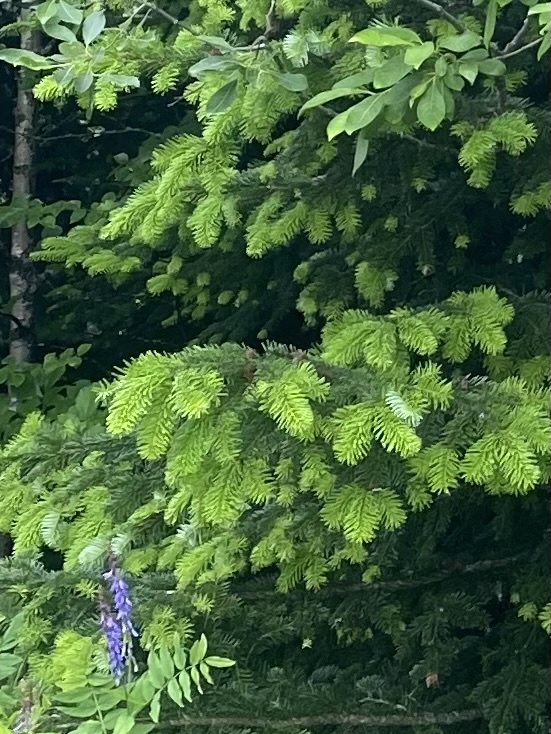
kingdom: Plantae
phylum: Tracheophyta
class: Pinopsida
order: Pinales
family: Pinaceae
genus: Abies
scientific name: Abies nordmanniana
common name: Caucasian fir
